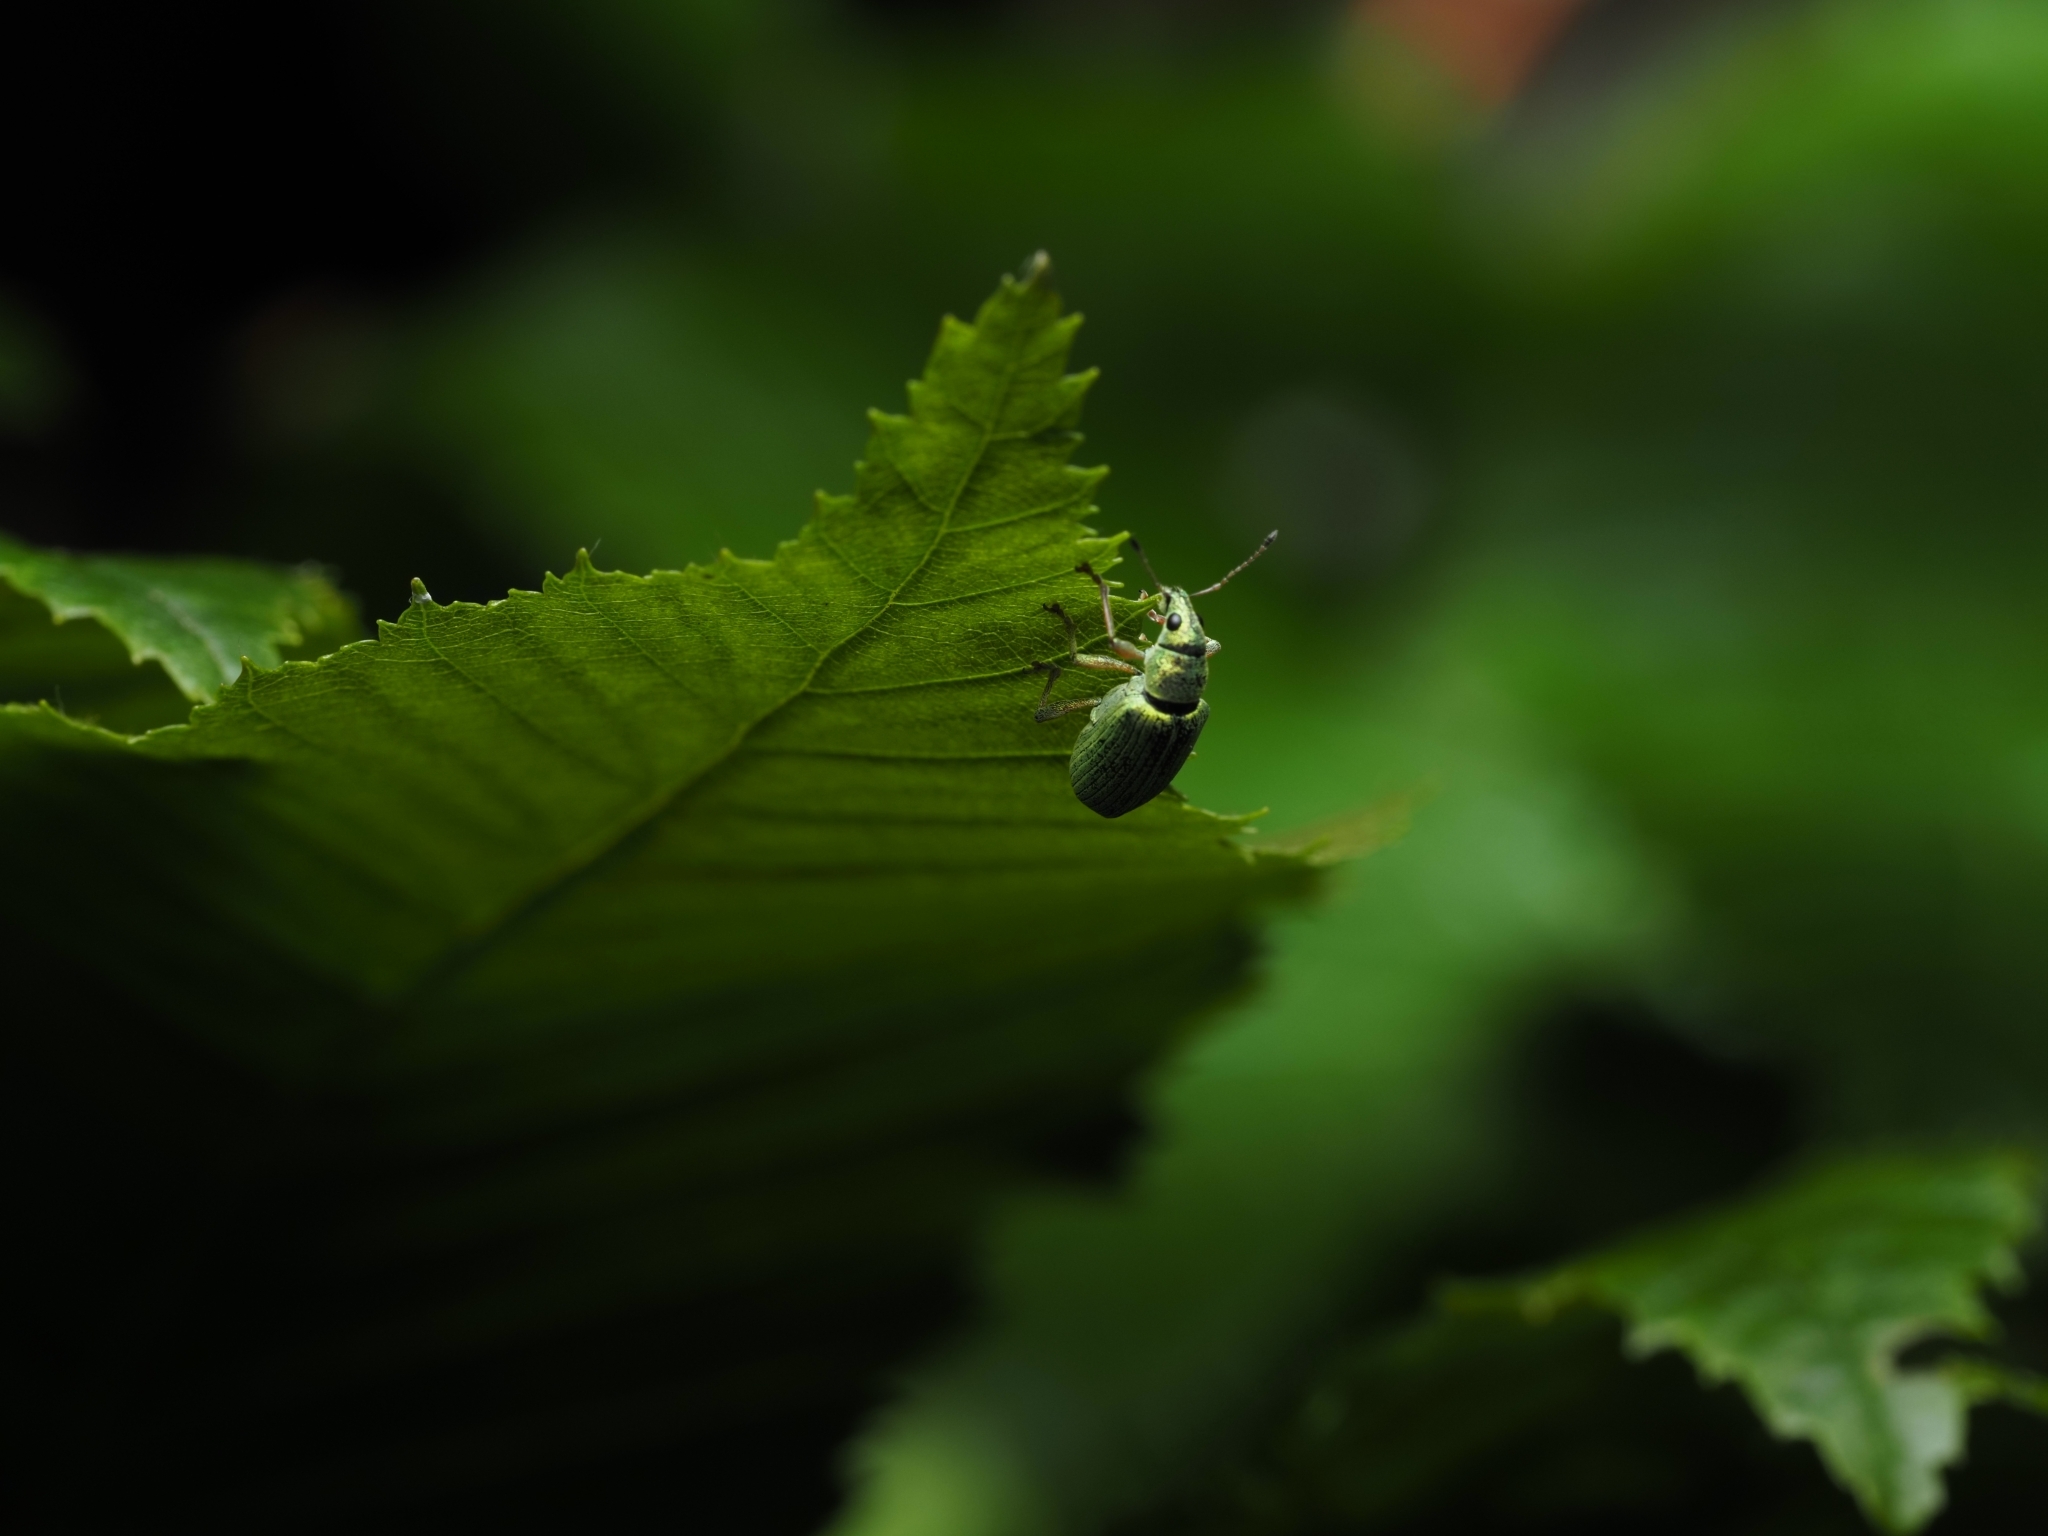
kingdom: Animalia
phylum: Arthropoda
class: Insecta
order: Coleoptera
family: Curculionidae
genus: Polydrusus
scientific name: Polydrusus formosus
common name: Weevil
